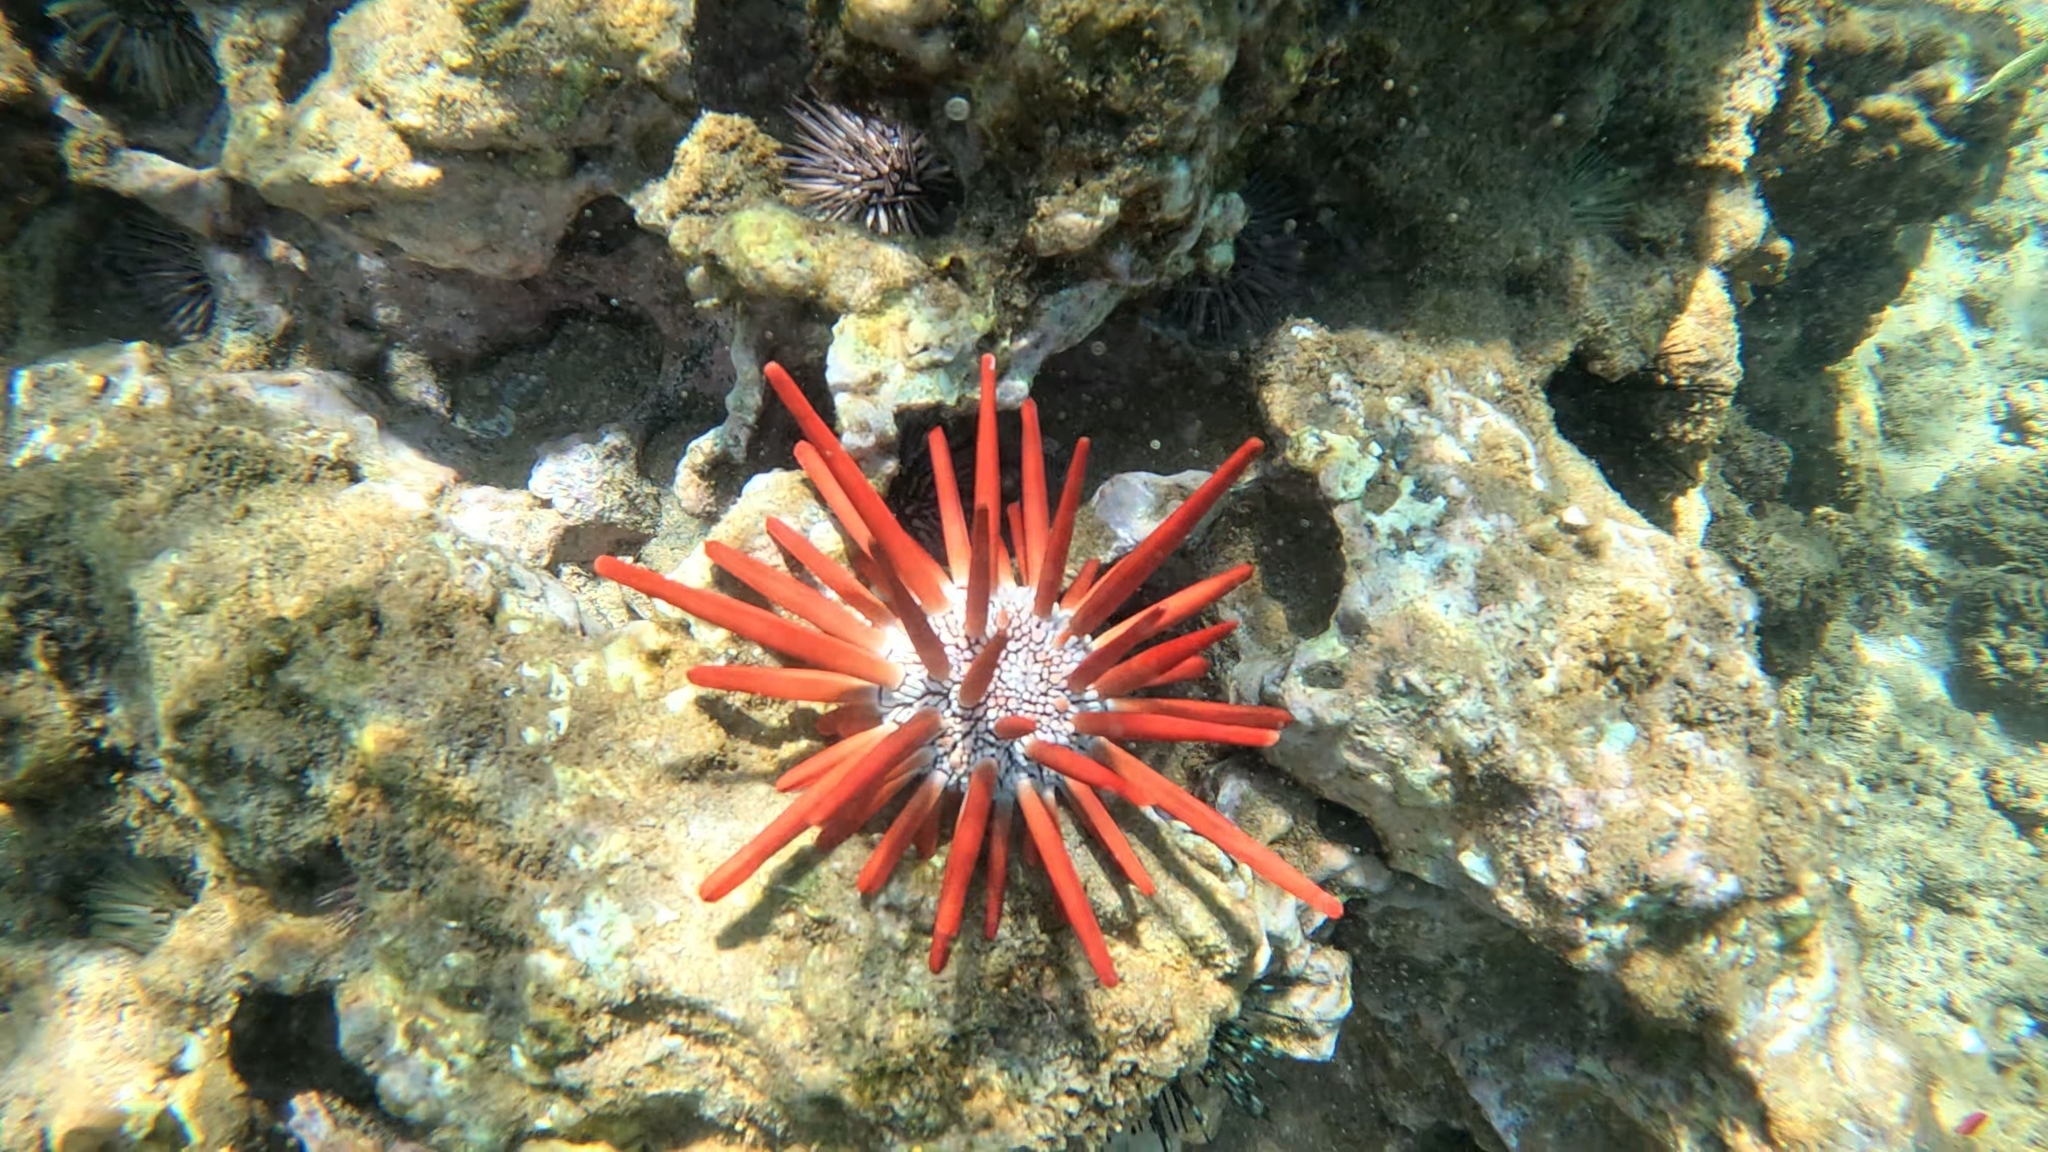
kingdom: Animalia
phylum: Echinodermata
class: Echinoidea
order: Camarodonta
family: Echinometridae
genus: Heterocentrotus
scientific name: Heterocentrotus mamillatus
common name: Slate pencil urchin
